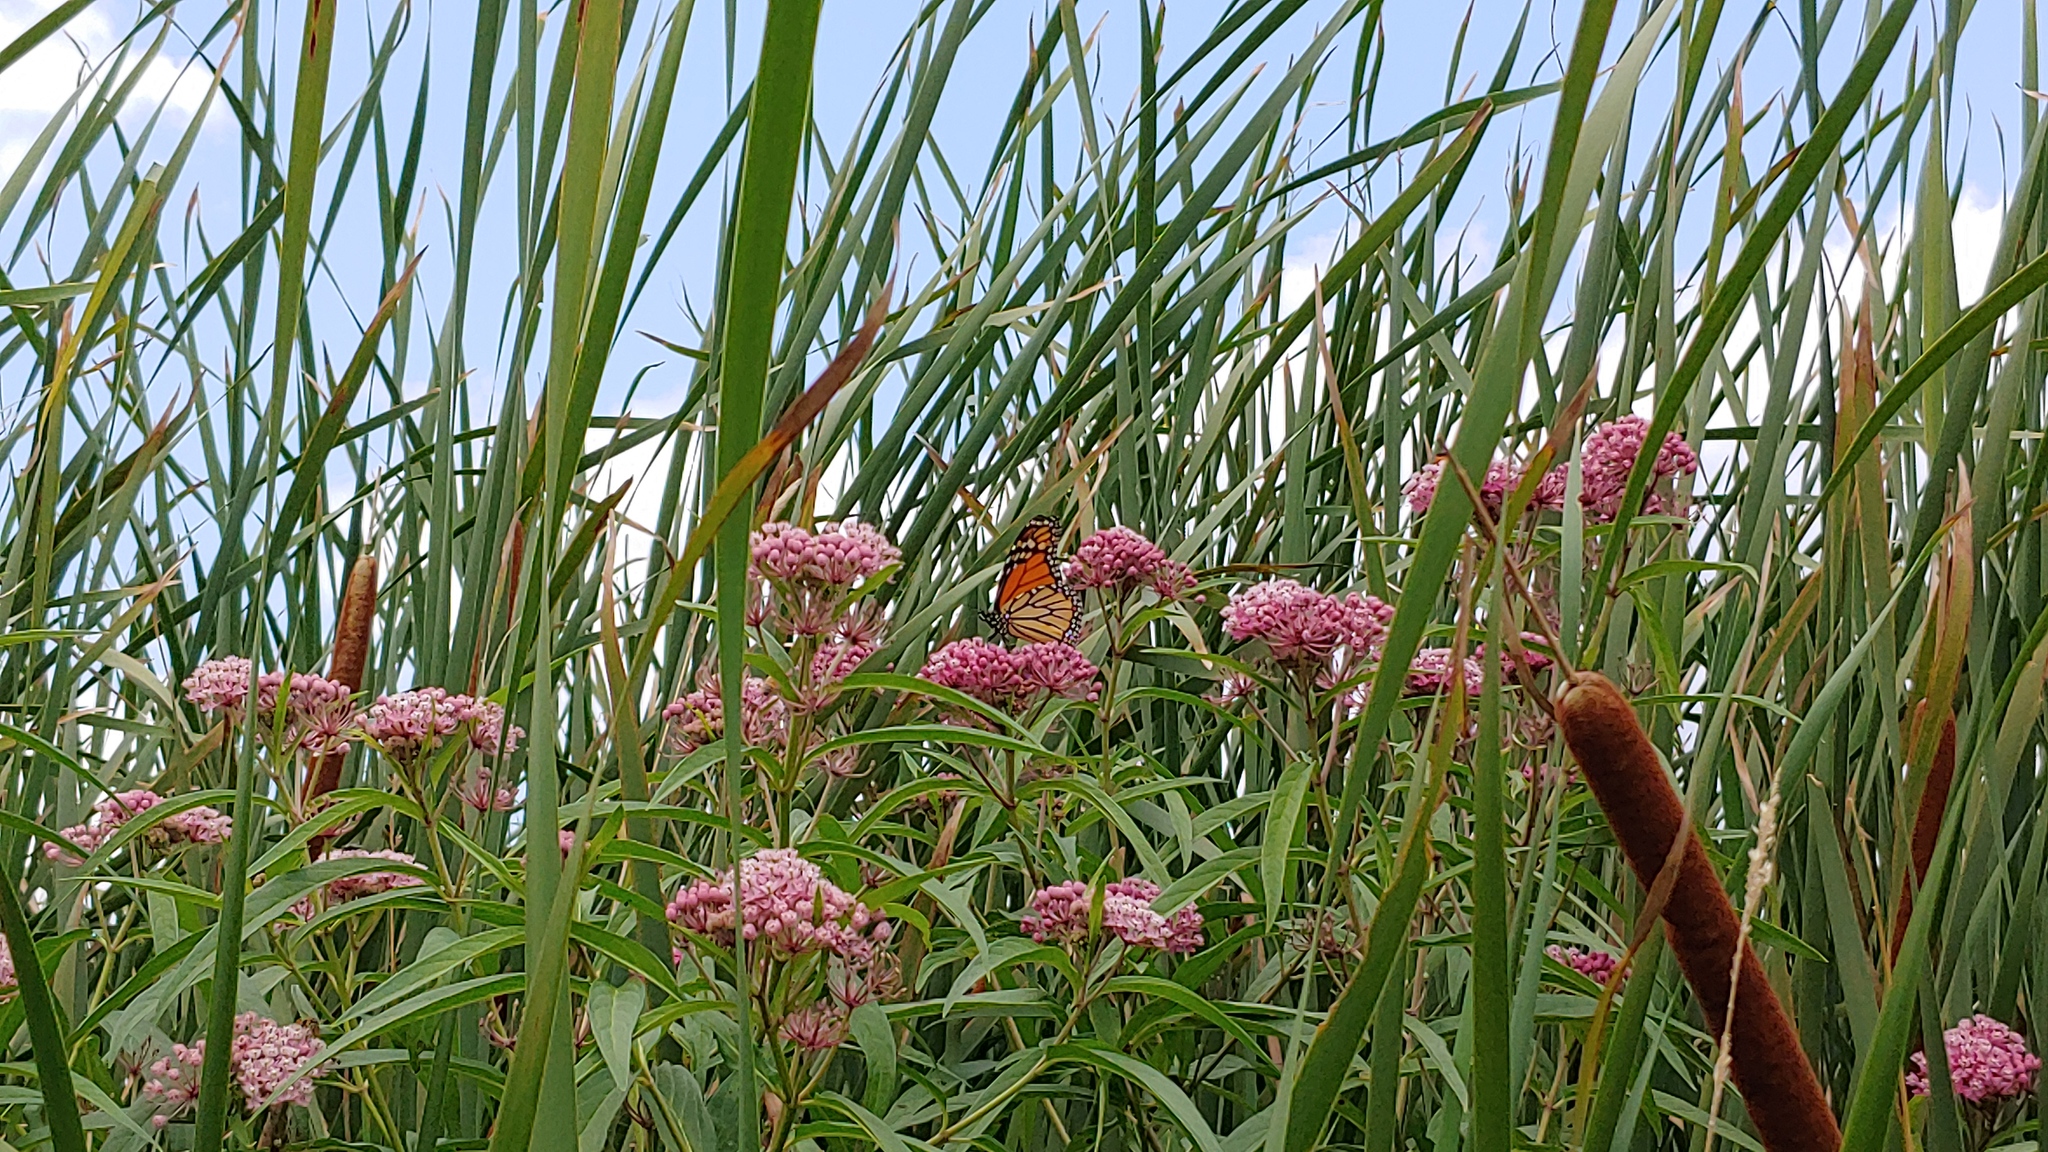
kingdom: Animalia
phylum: Arthropoda
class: Insecta
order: Lepidoptera
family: Nymphalidae
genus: Danaus
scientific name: Danaus plexippus
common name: Monarch
